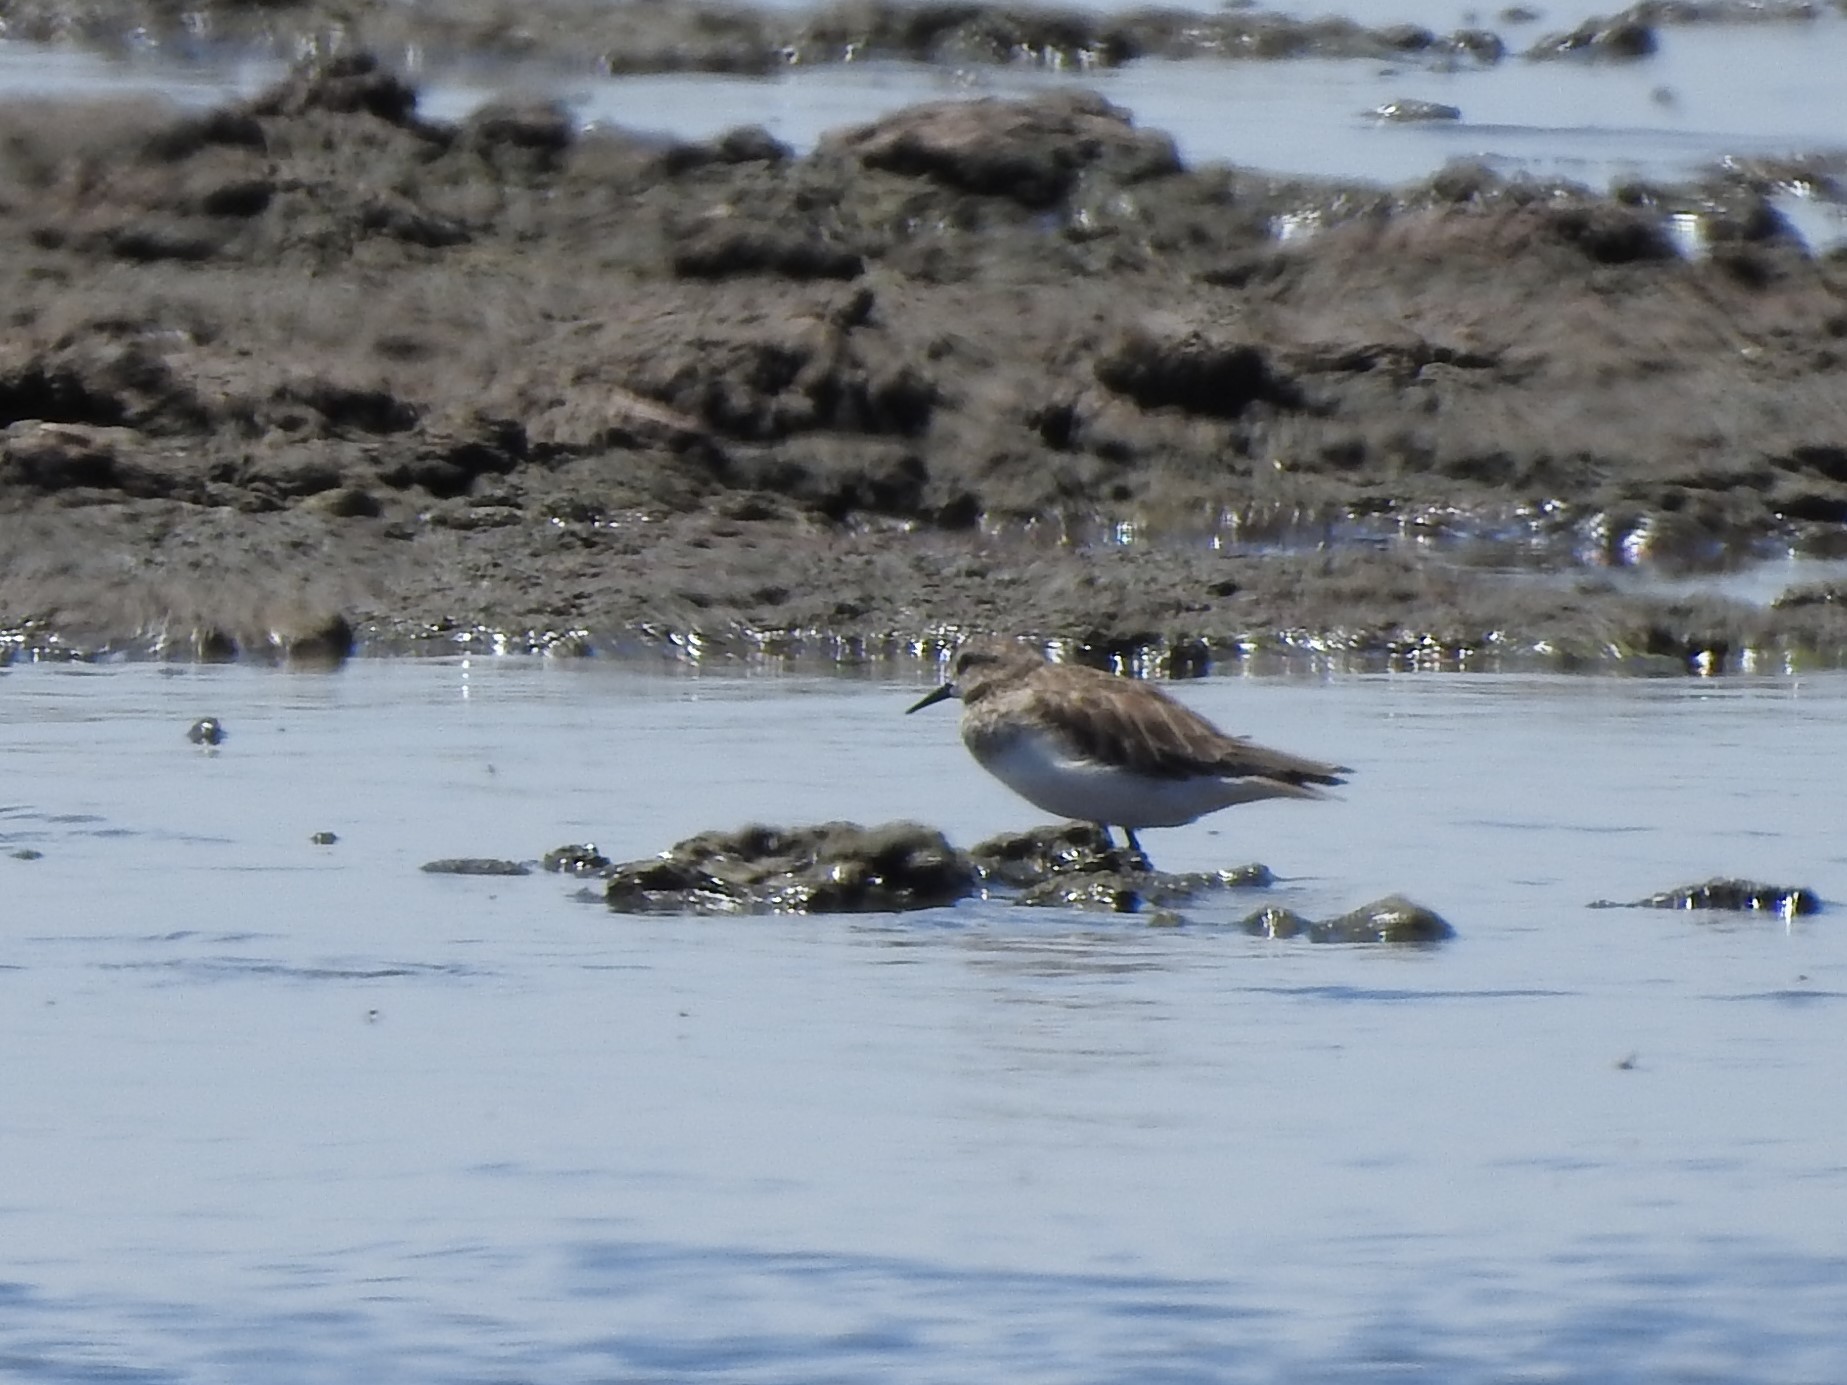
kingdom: Animalia
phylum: Chordata
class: Aves
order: Charadriiformes
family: Scolopacidae
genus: Calidris
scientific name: Calidris bairdii
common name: Baird's sandpiper
